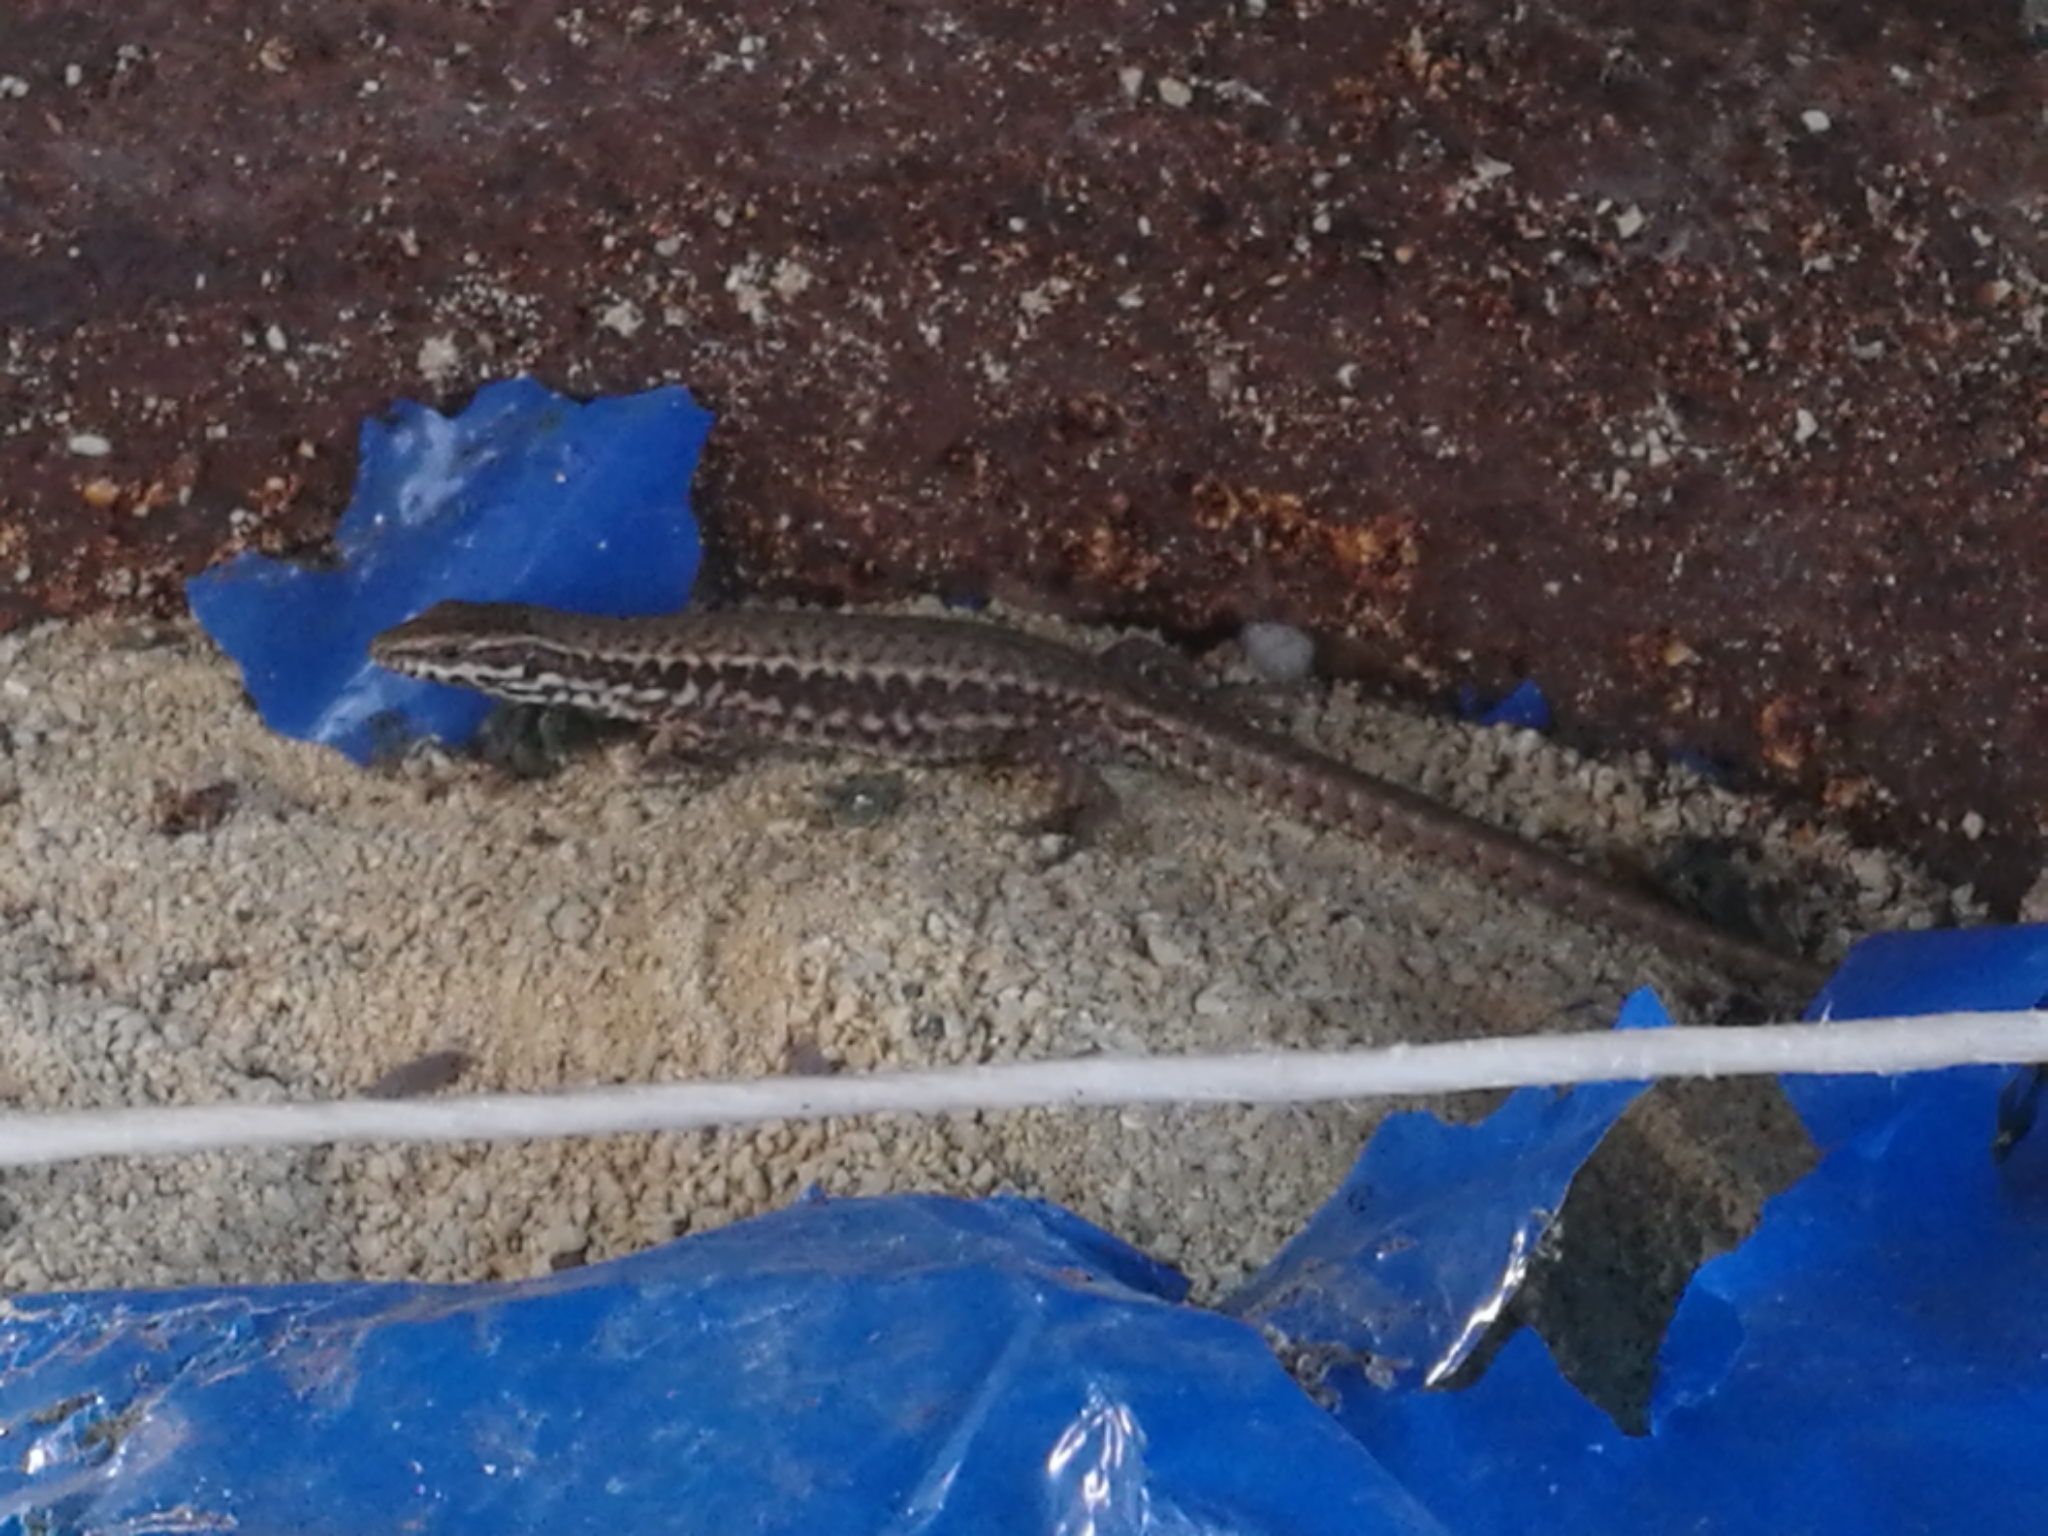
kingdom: Animalia
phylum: Chordata
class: Squamata
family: Lacertidae
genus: Podarcis
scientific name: Podarcis muralis
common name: Common wall lizard
